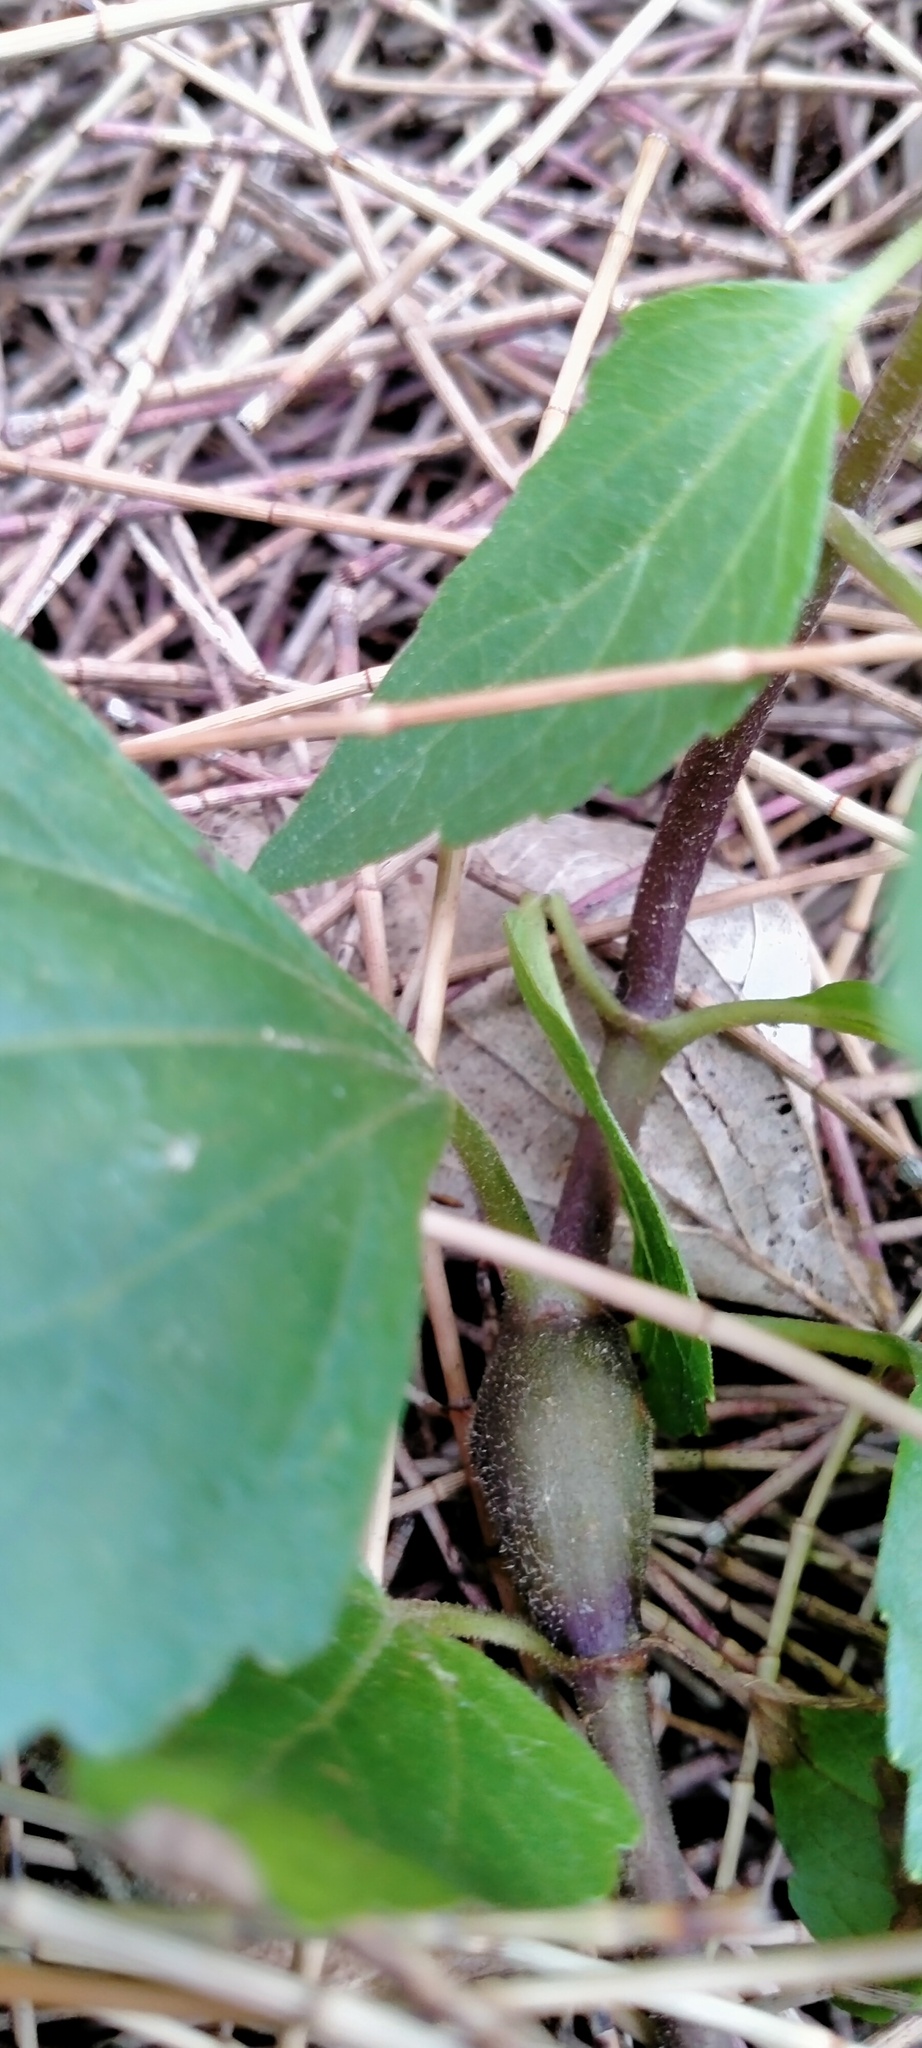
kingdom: Plantae
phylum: Tracheophyta
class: Magnoliopsida
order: Asterales
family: Asteraceae
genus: Ageratina
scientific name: Ageratina adenophora
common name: Sticky snakeroot
